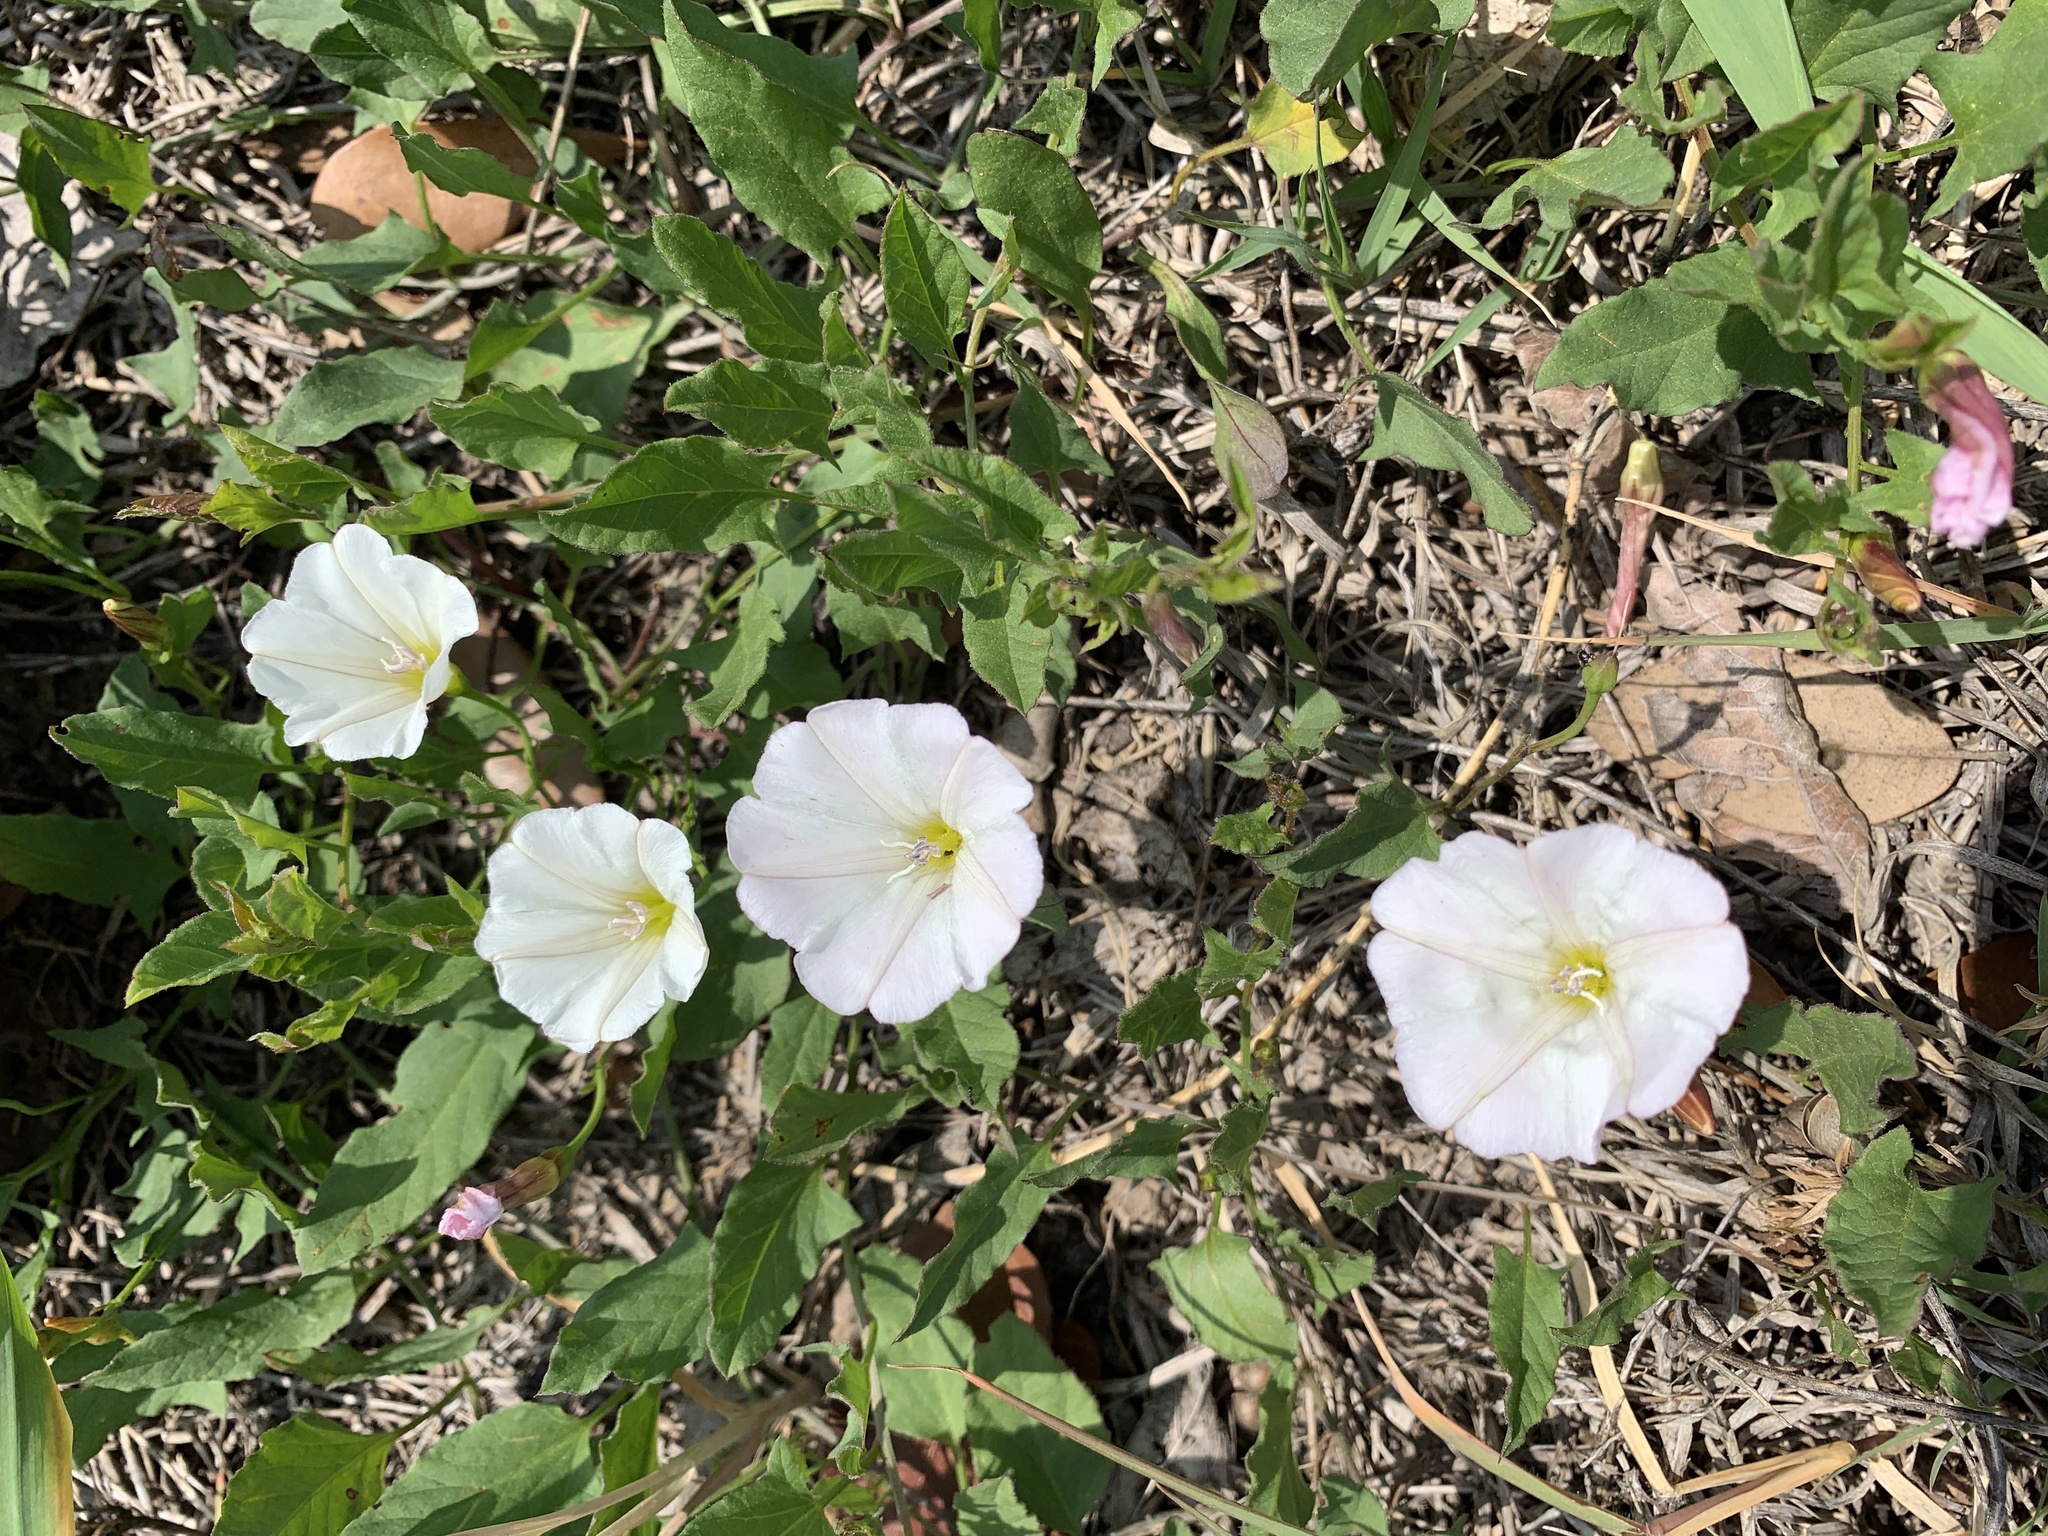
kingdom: Plantae
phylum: Tracheophyta
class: Magnoliopsida
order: Solanales
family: Convolvulaceae
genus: Convolvulus
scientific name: Convolvulus arvensis
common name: Field bindweed
